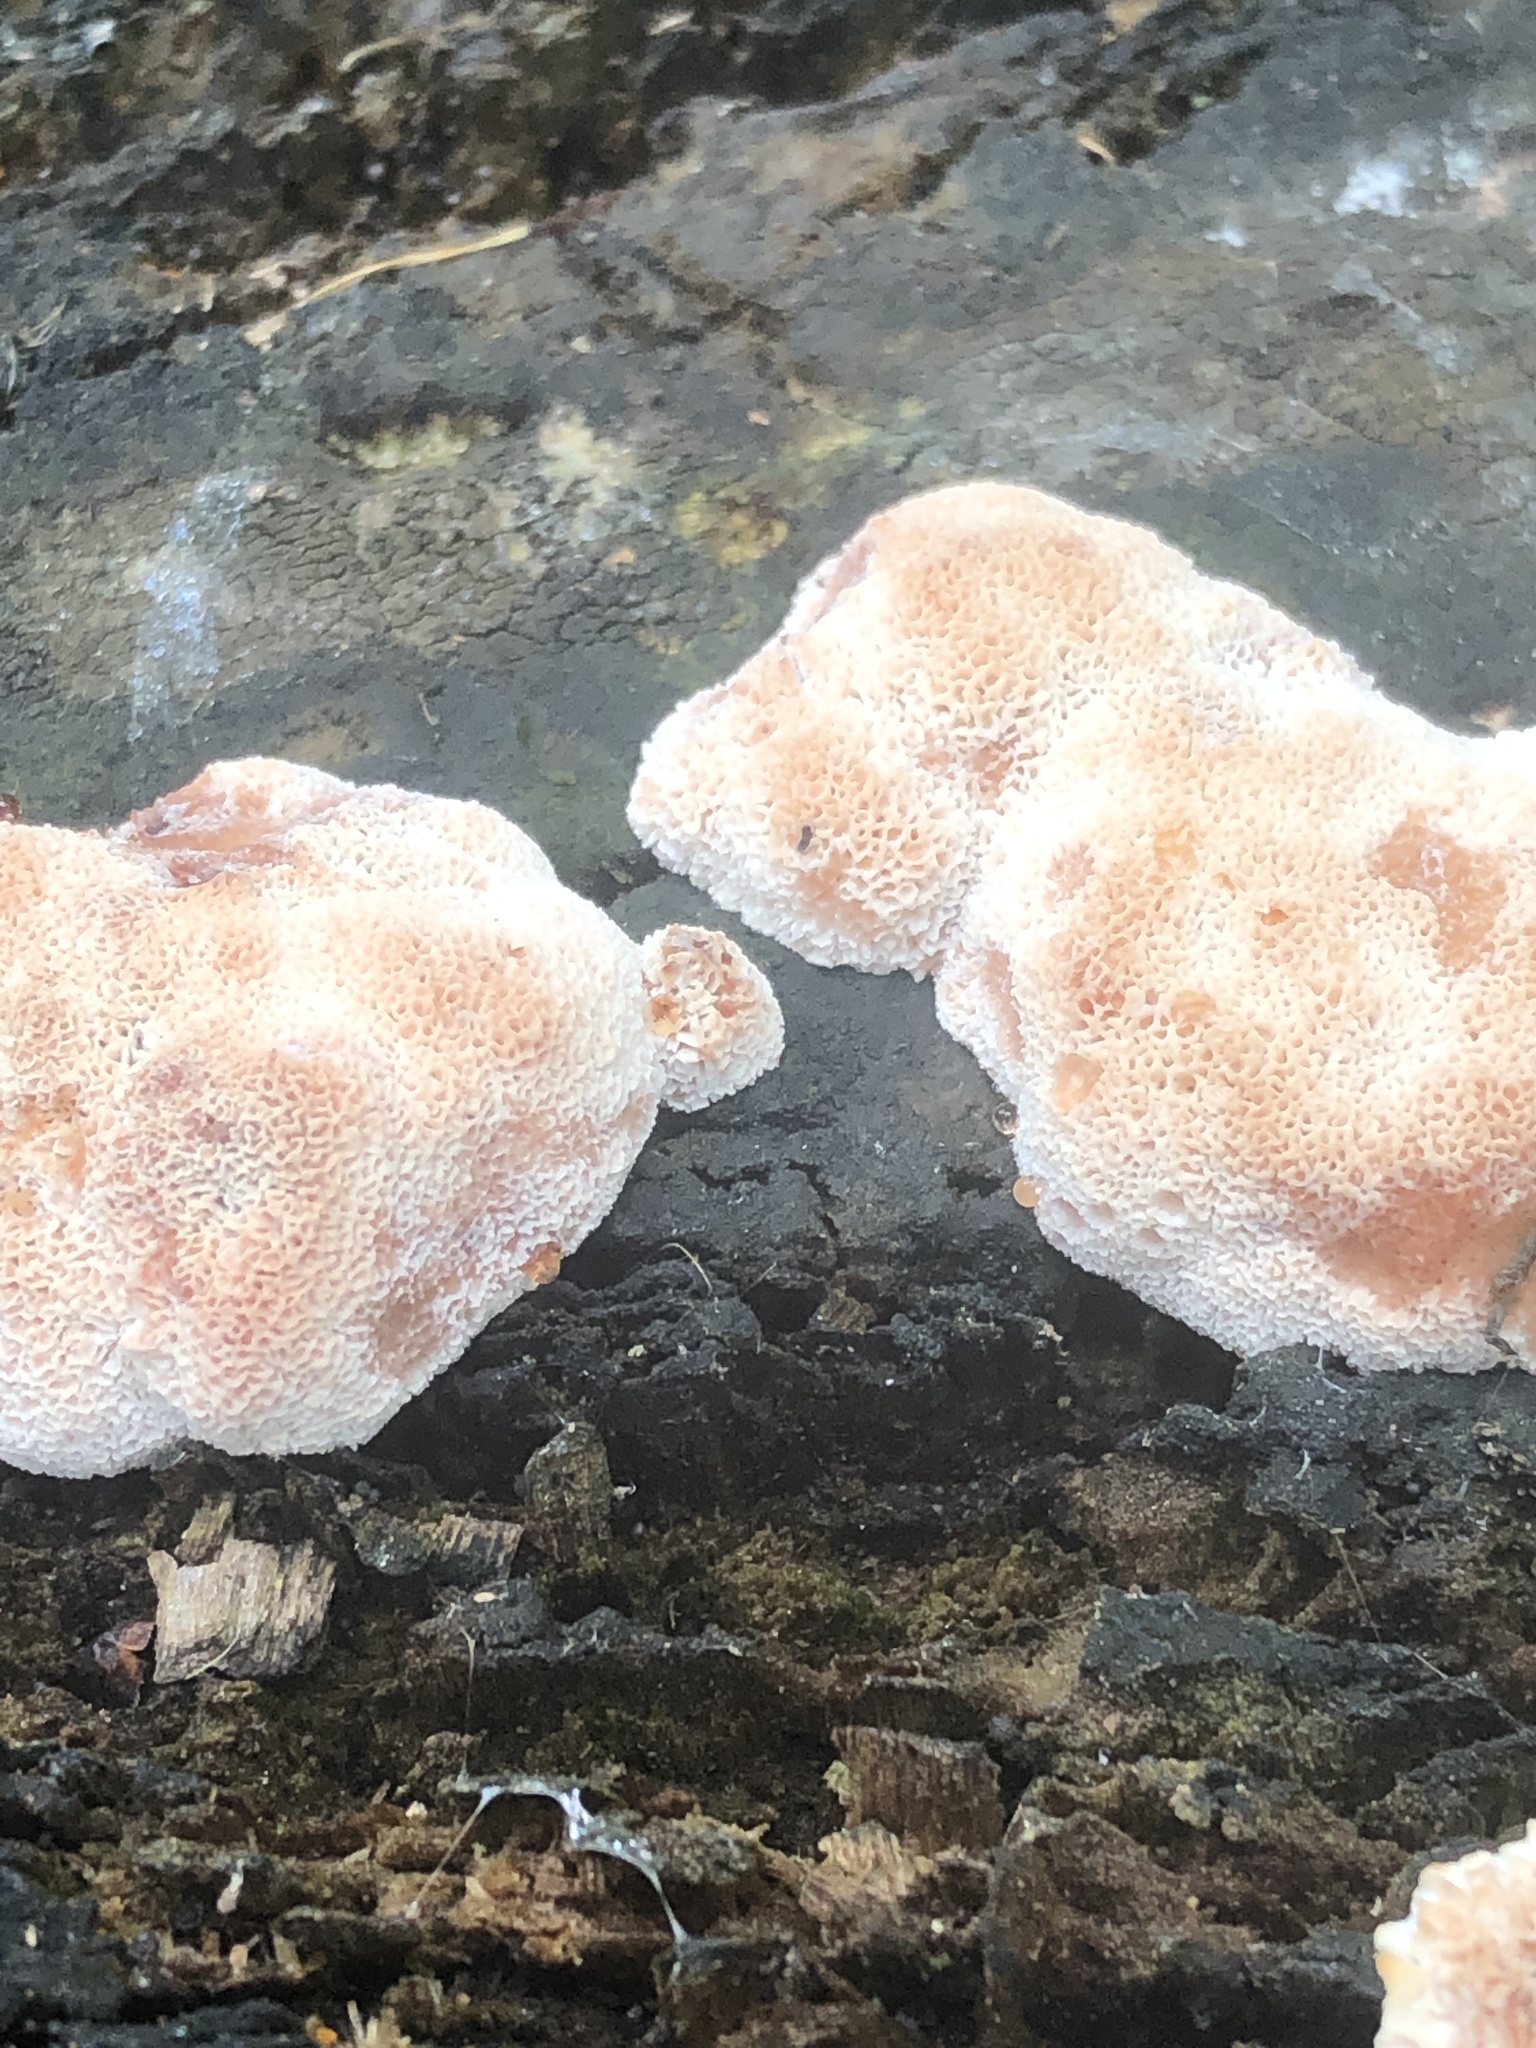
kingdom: Fungi
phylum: Basidiomycota
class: Agaricomycetes
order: Polyporales
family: Podoscyphaceae
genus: Abortiporus
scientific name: Abortiporus biennis
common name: Blushing rosette
